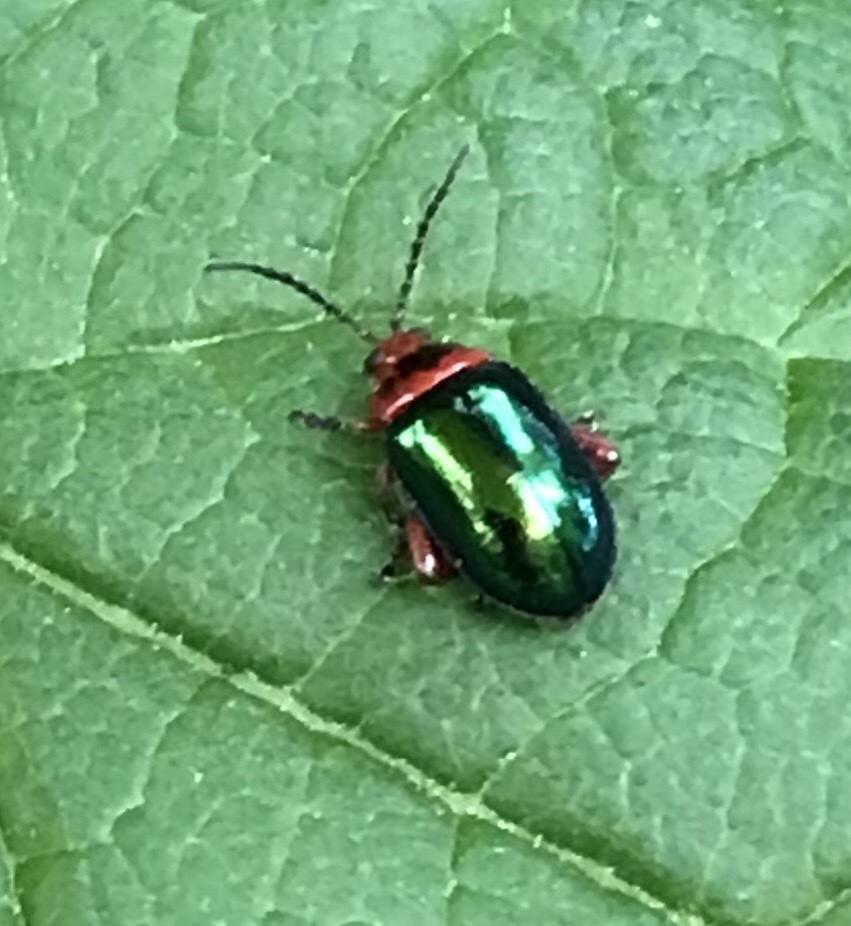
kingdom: Animalia
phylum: Arthropoda
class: Insecta
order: Coleoptera
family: Chrysomelidae
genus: Kuschelina
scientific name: Kuschelina gibbitarsa
